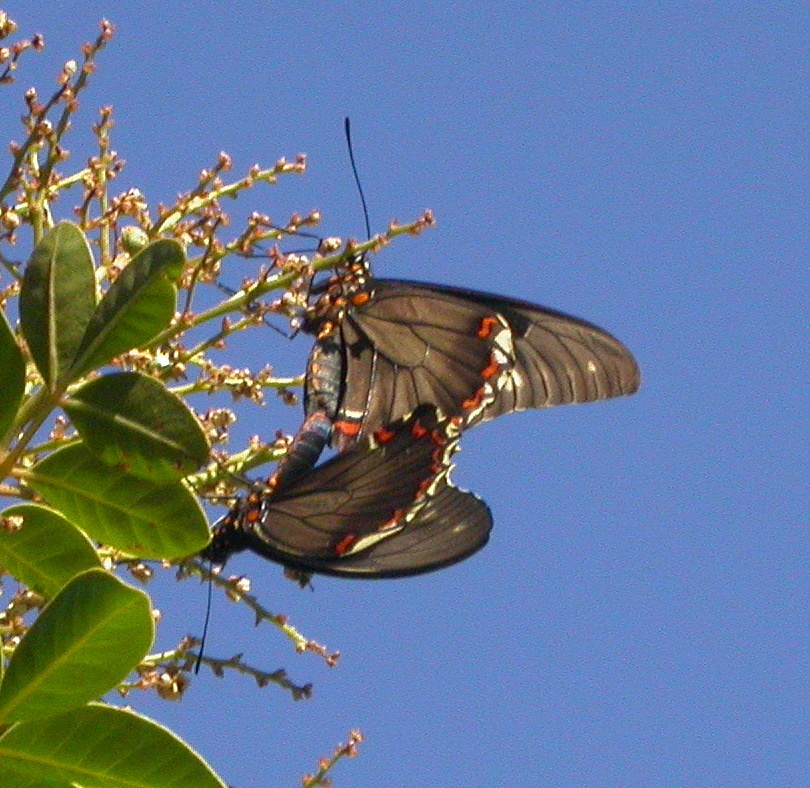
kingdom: Animalia
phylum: Arthropoda
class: Insecta
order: Lepidoptera
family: Papilionidae
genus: Battus
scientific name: Battus polydamas
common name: Polydamas swallowtail
